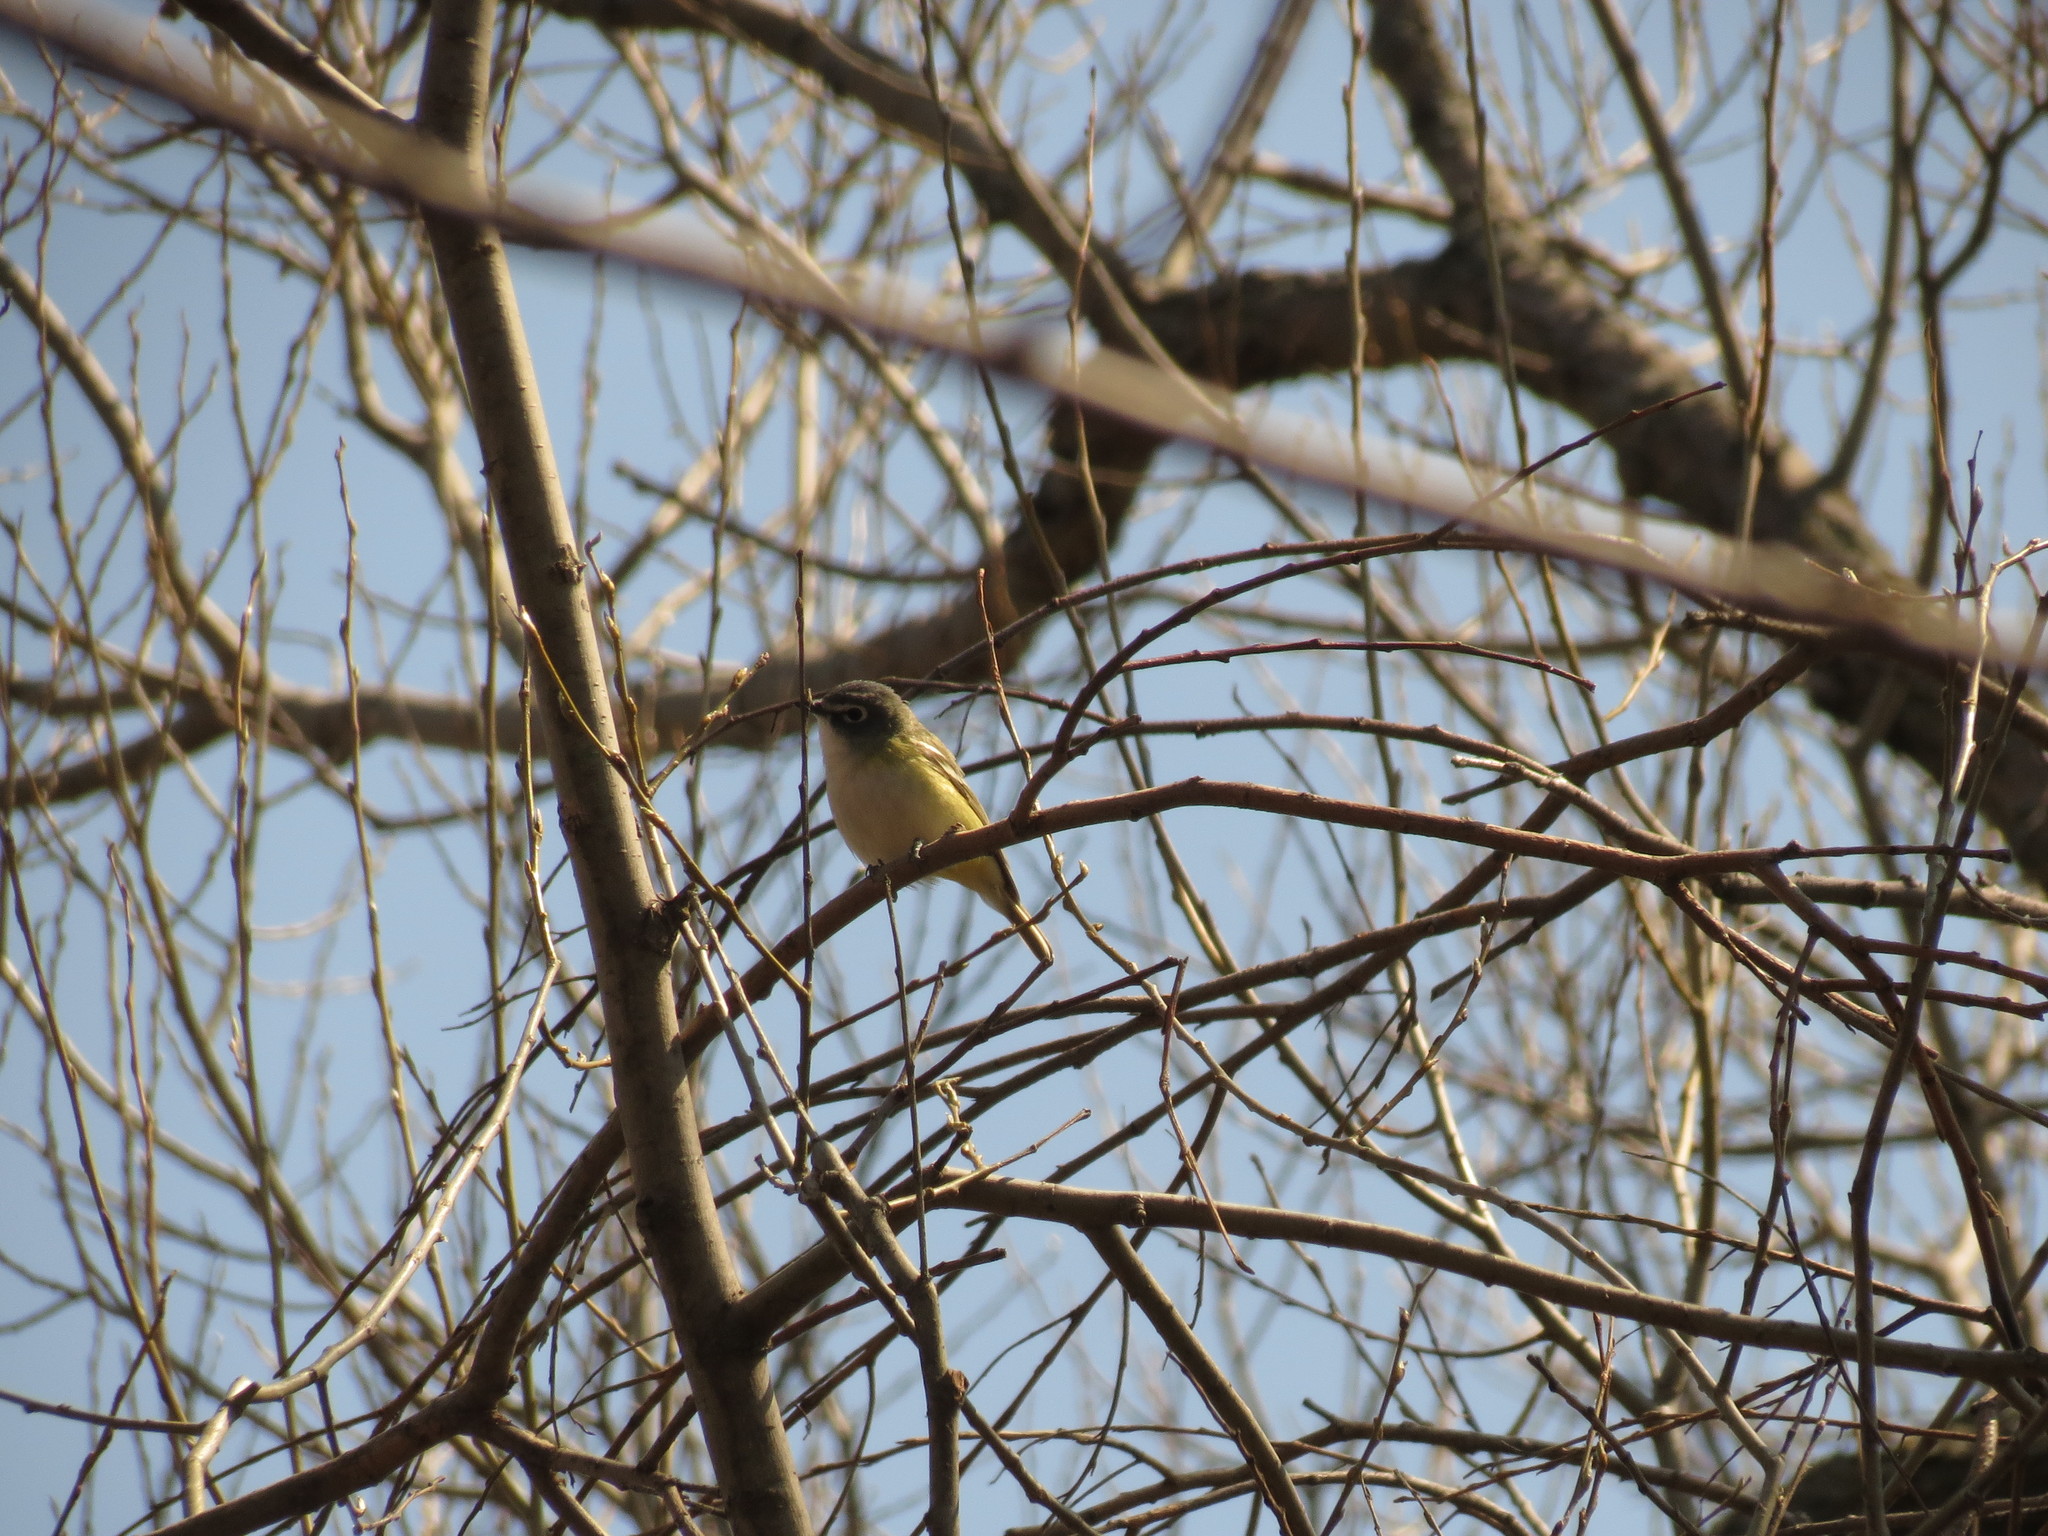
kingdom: Animalia
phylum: Chordata
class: Aves
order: Passeriformes
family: Vireonidae
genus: Vireo
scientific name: Vireo solitarius
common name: Blue-headed vireo
